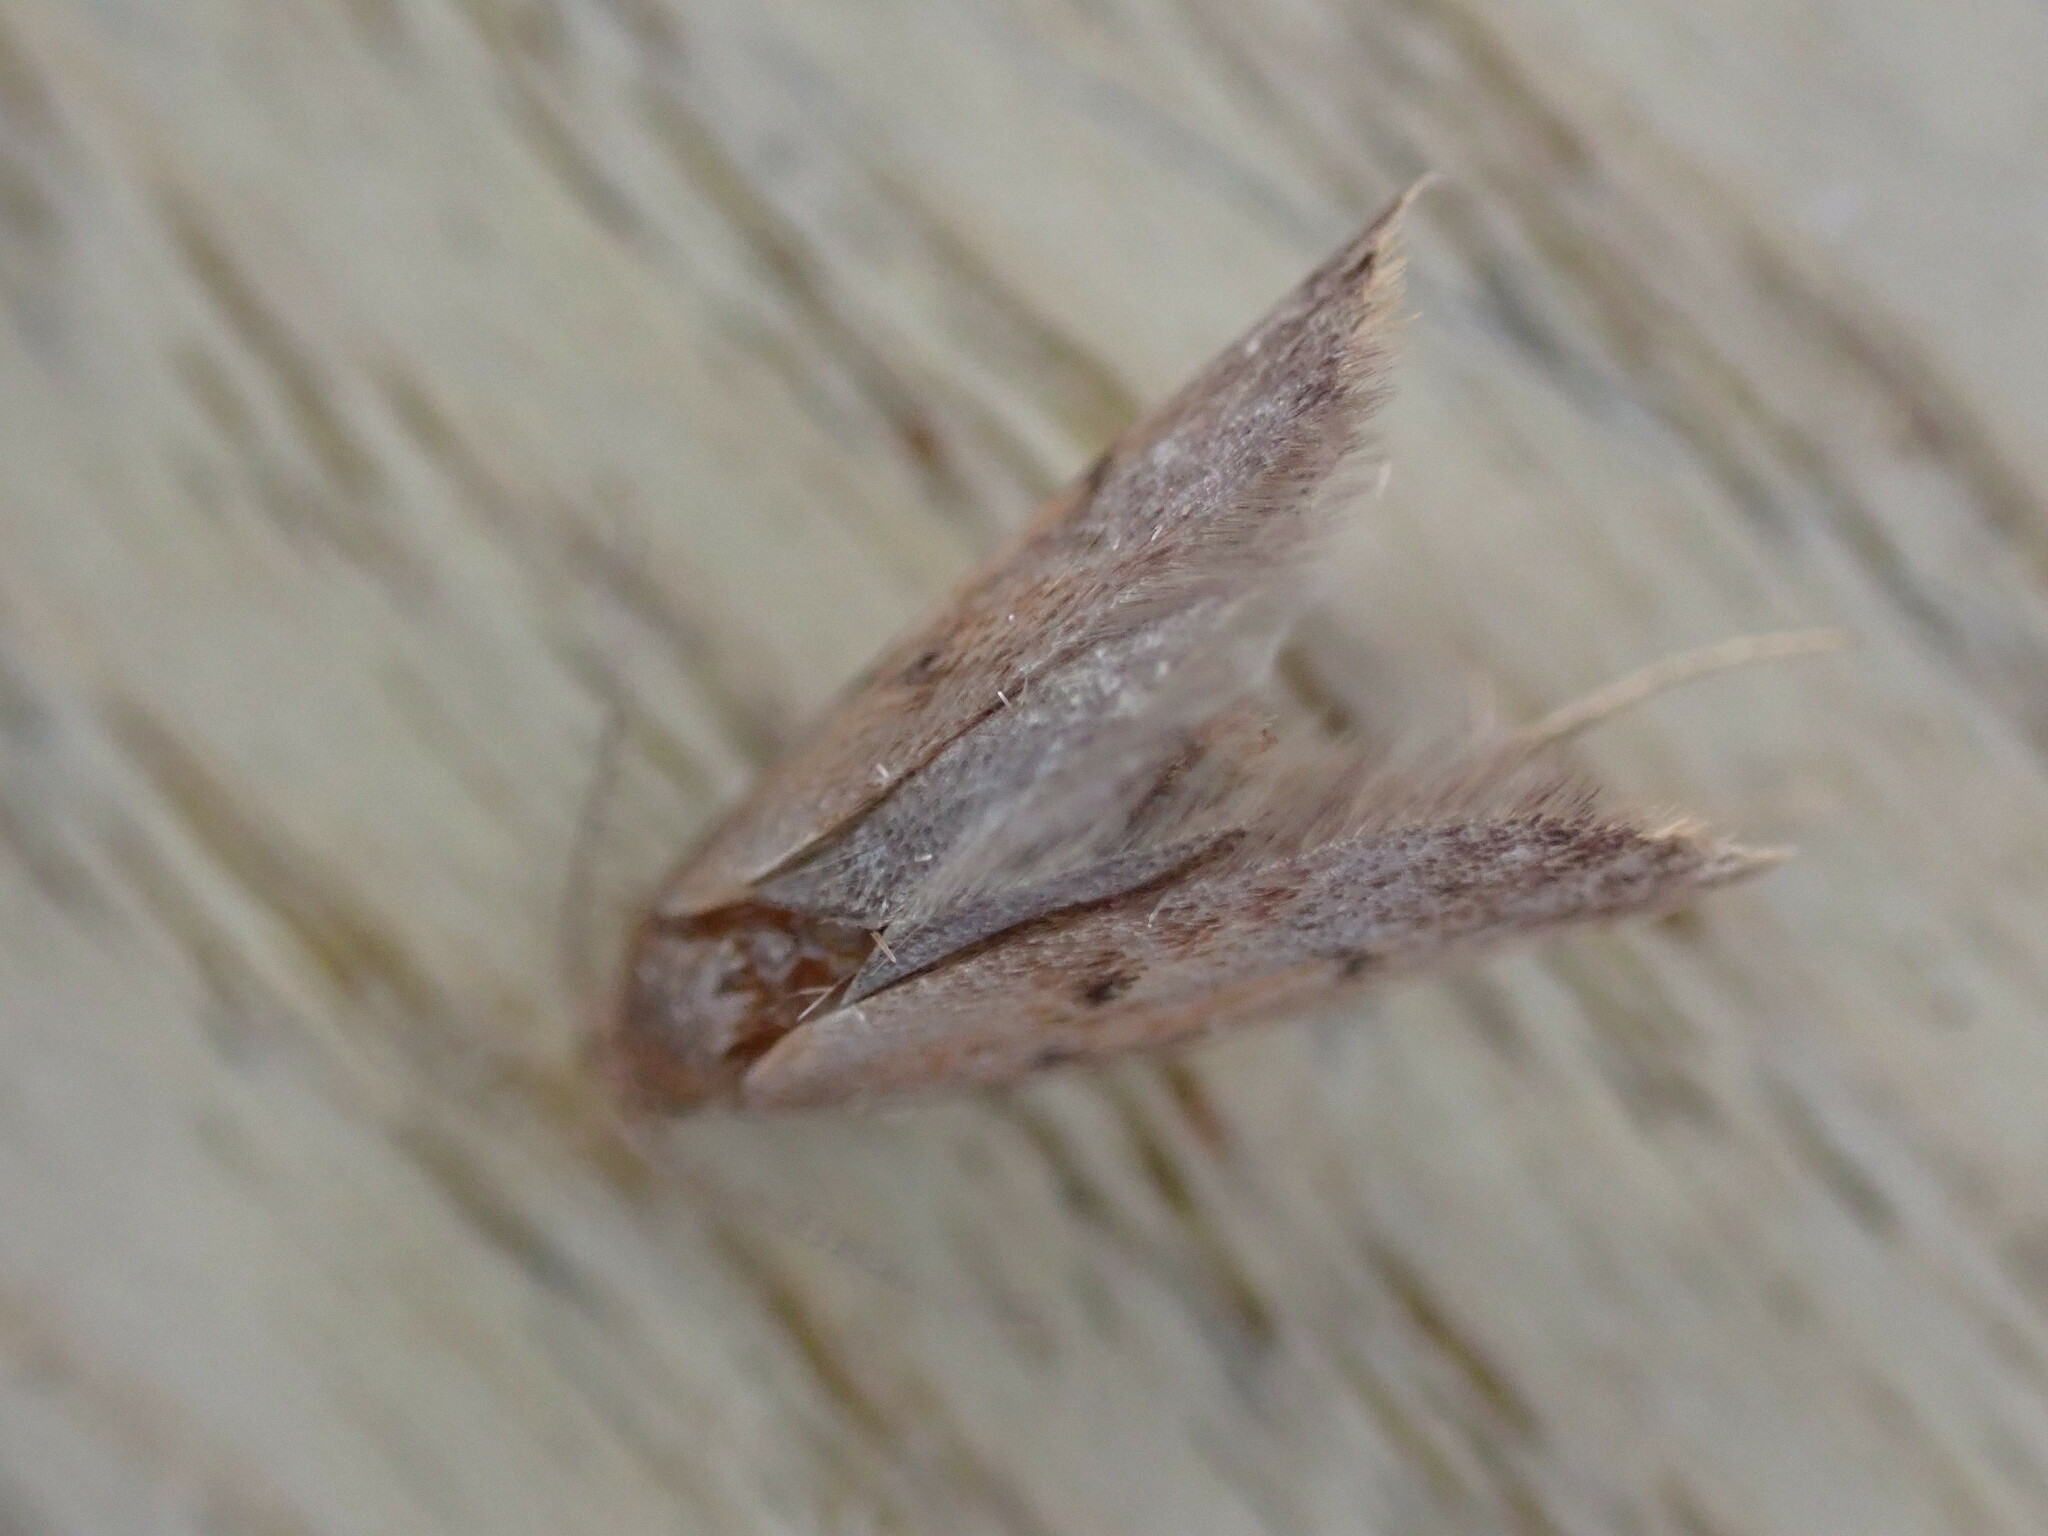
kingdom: Animalia
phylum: Arthropoda
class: Insecta
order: Lepidoptera
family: Oecophoridae
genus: Tachystola
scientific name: Tachystola acroxantha
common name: Ruddy streak
